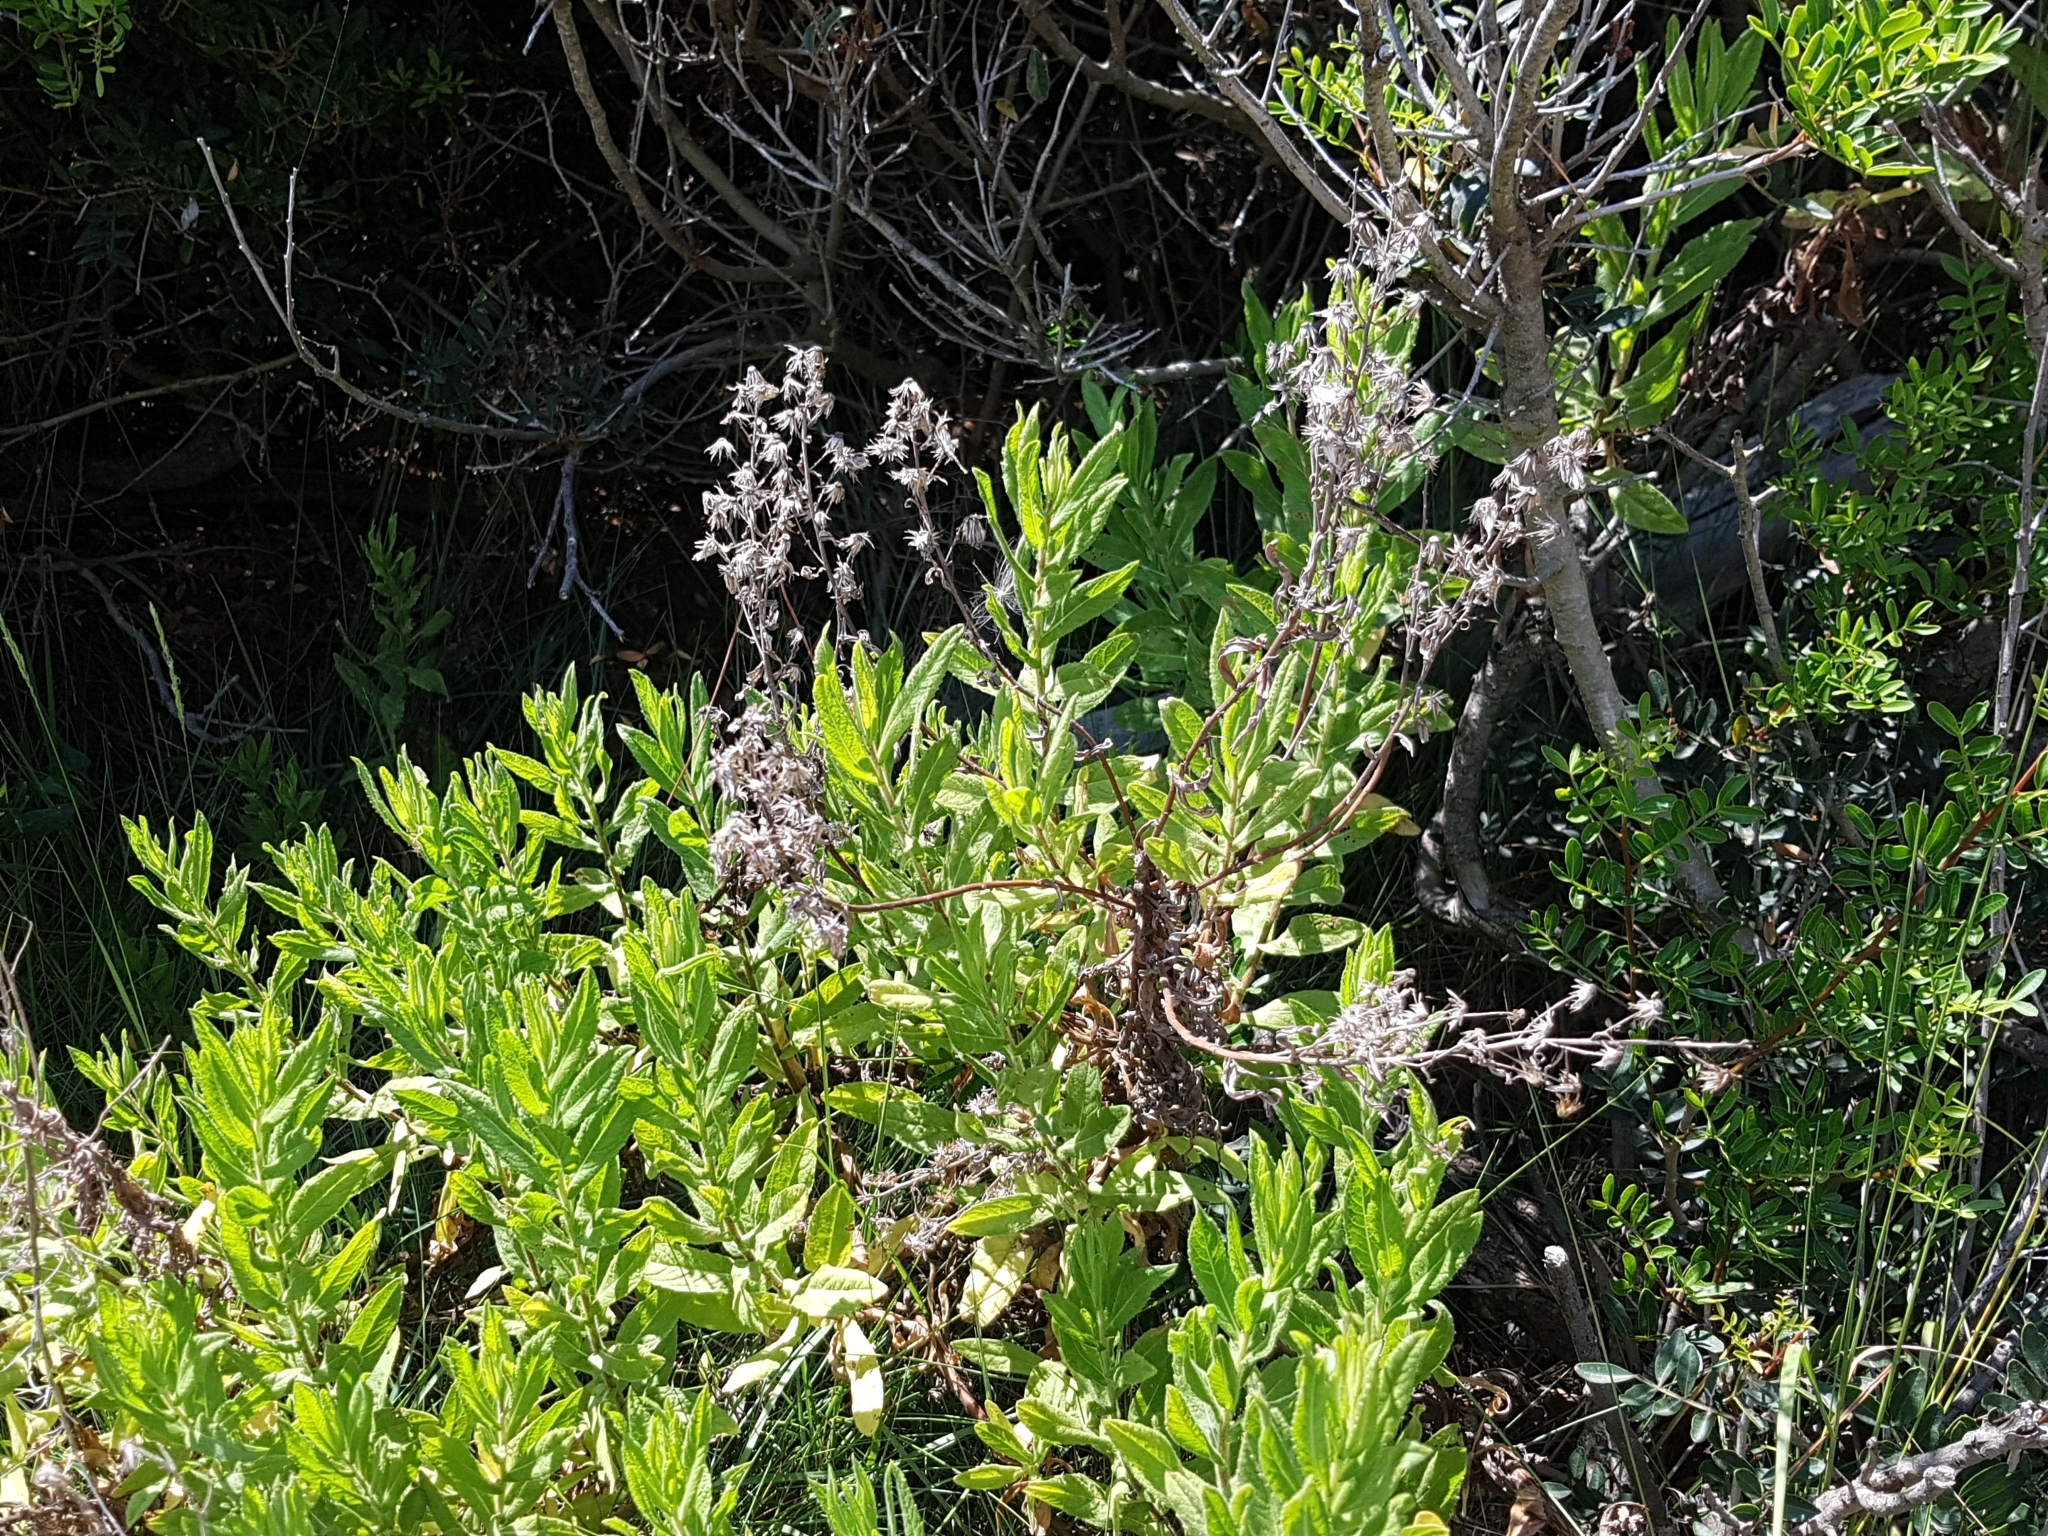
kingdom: Plantae
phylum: Tracheophyta
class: Magnoliopsida
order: Asterales
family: Asteraceae
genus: Dittrichia
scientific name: Dittrichia viscosa
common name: Woody fleabane
